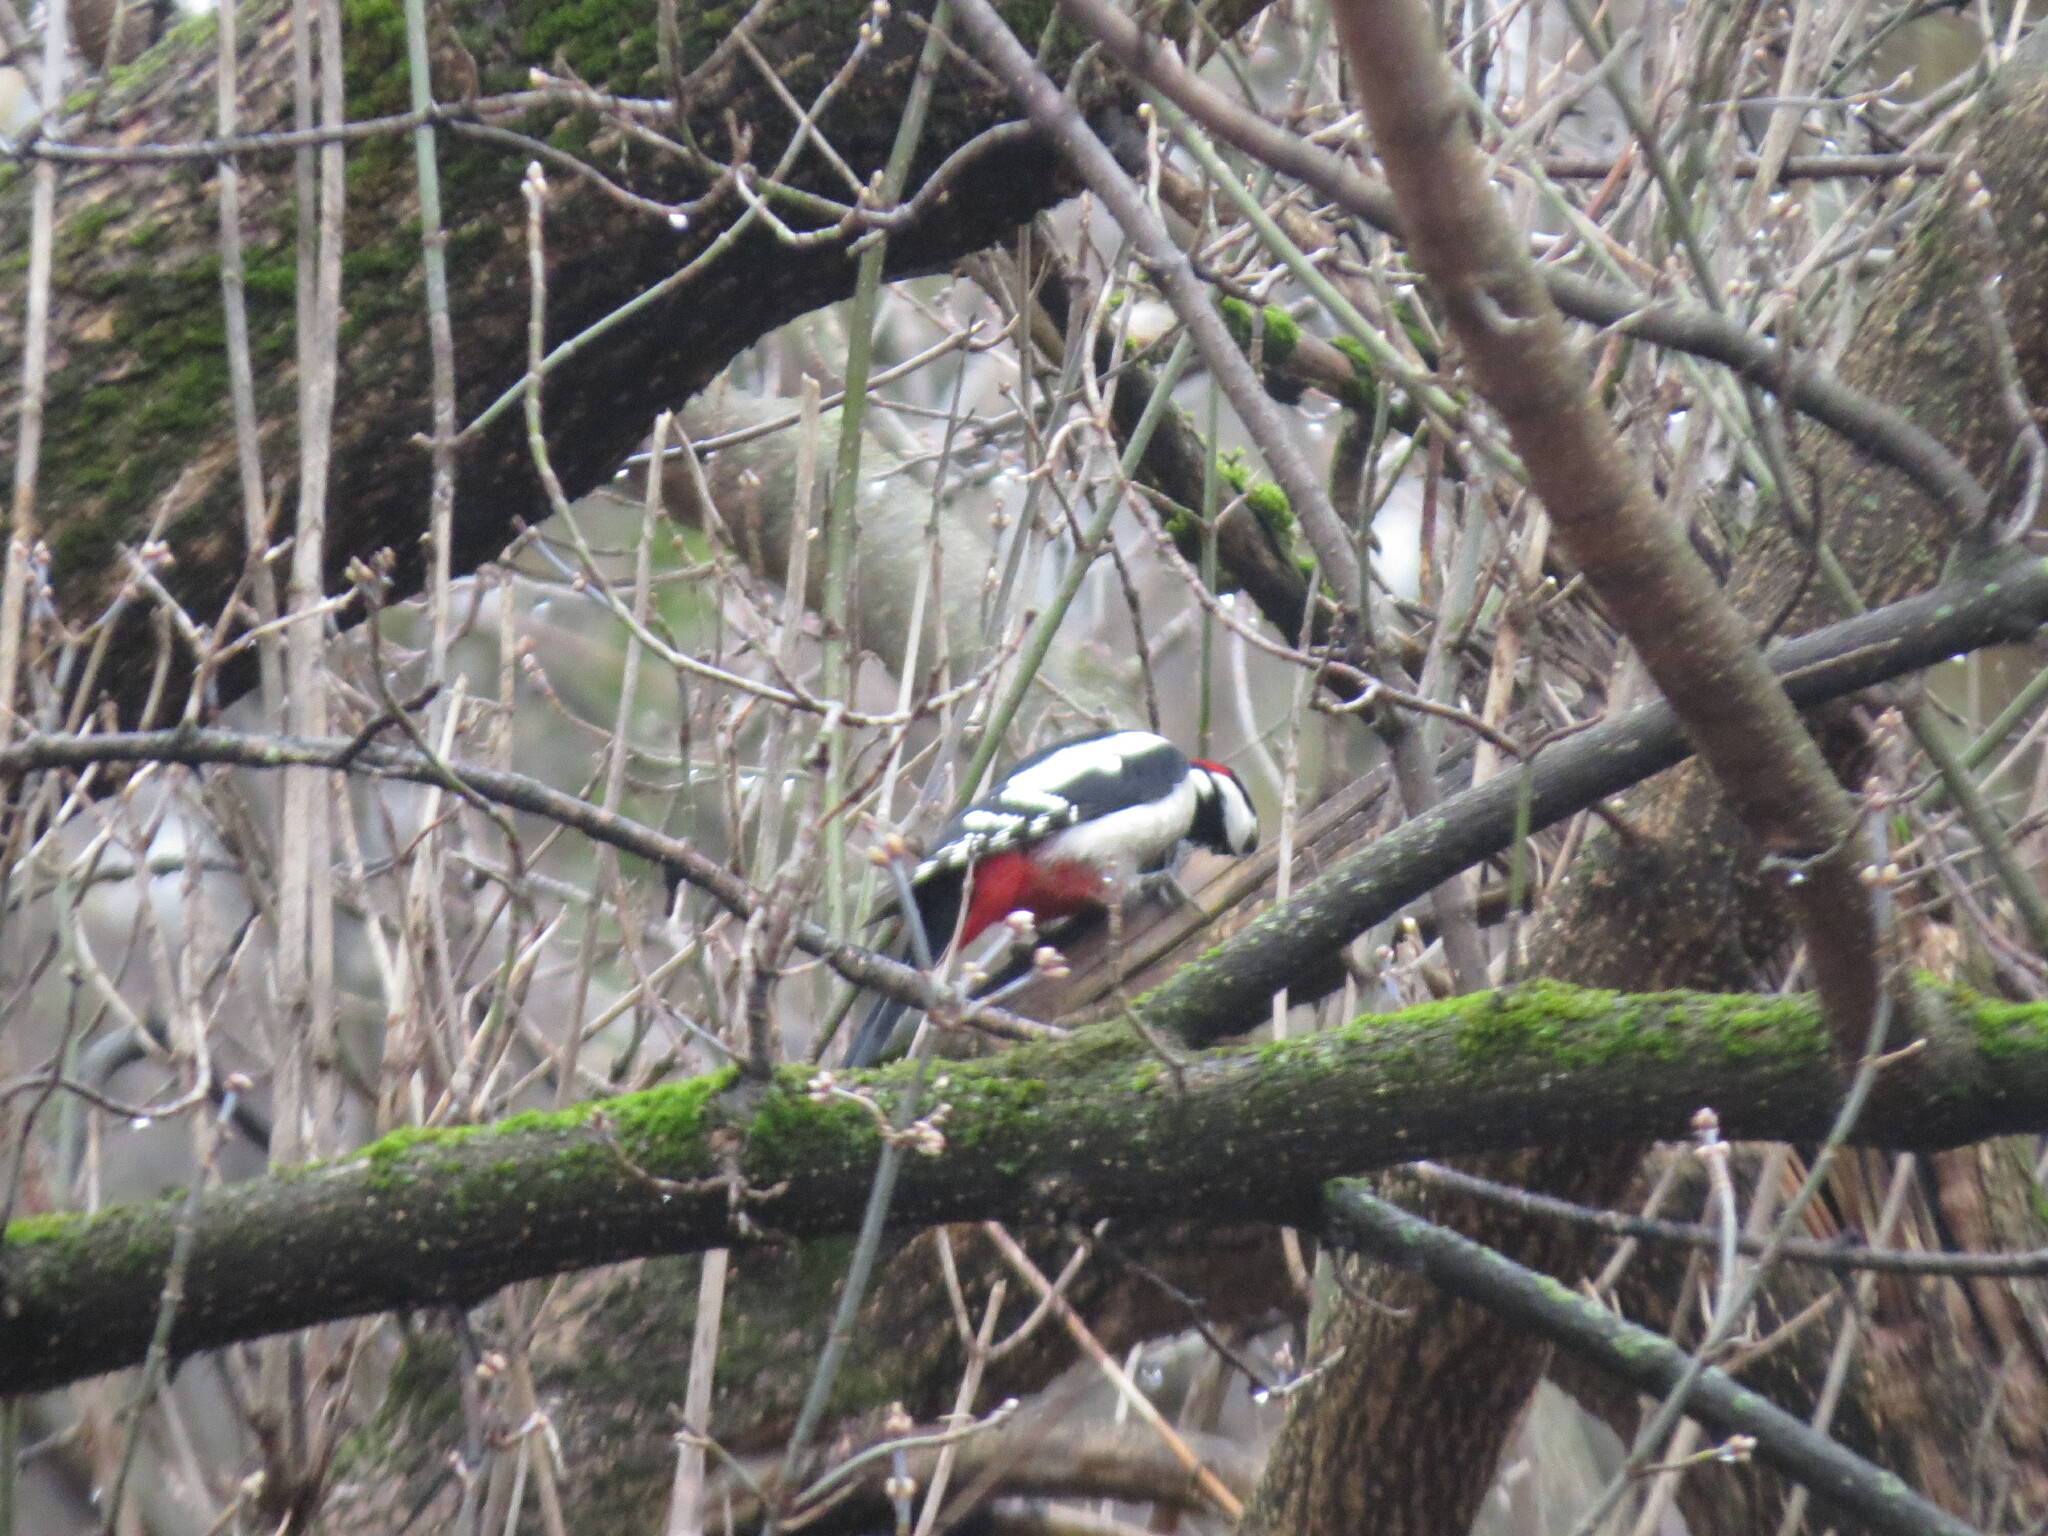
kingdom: Animalia
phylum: Chordata
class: Aves
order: Piciformes
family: Picidae
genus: Dendrocopos
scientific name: Dendrocopos major
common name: Great spotted woodpecker
